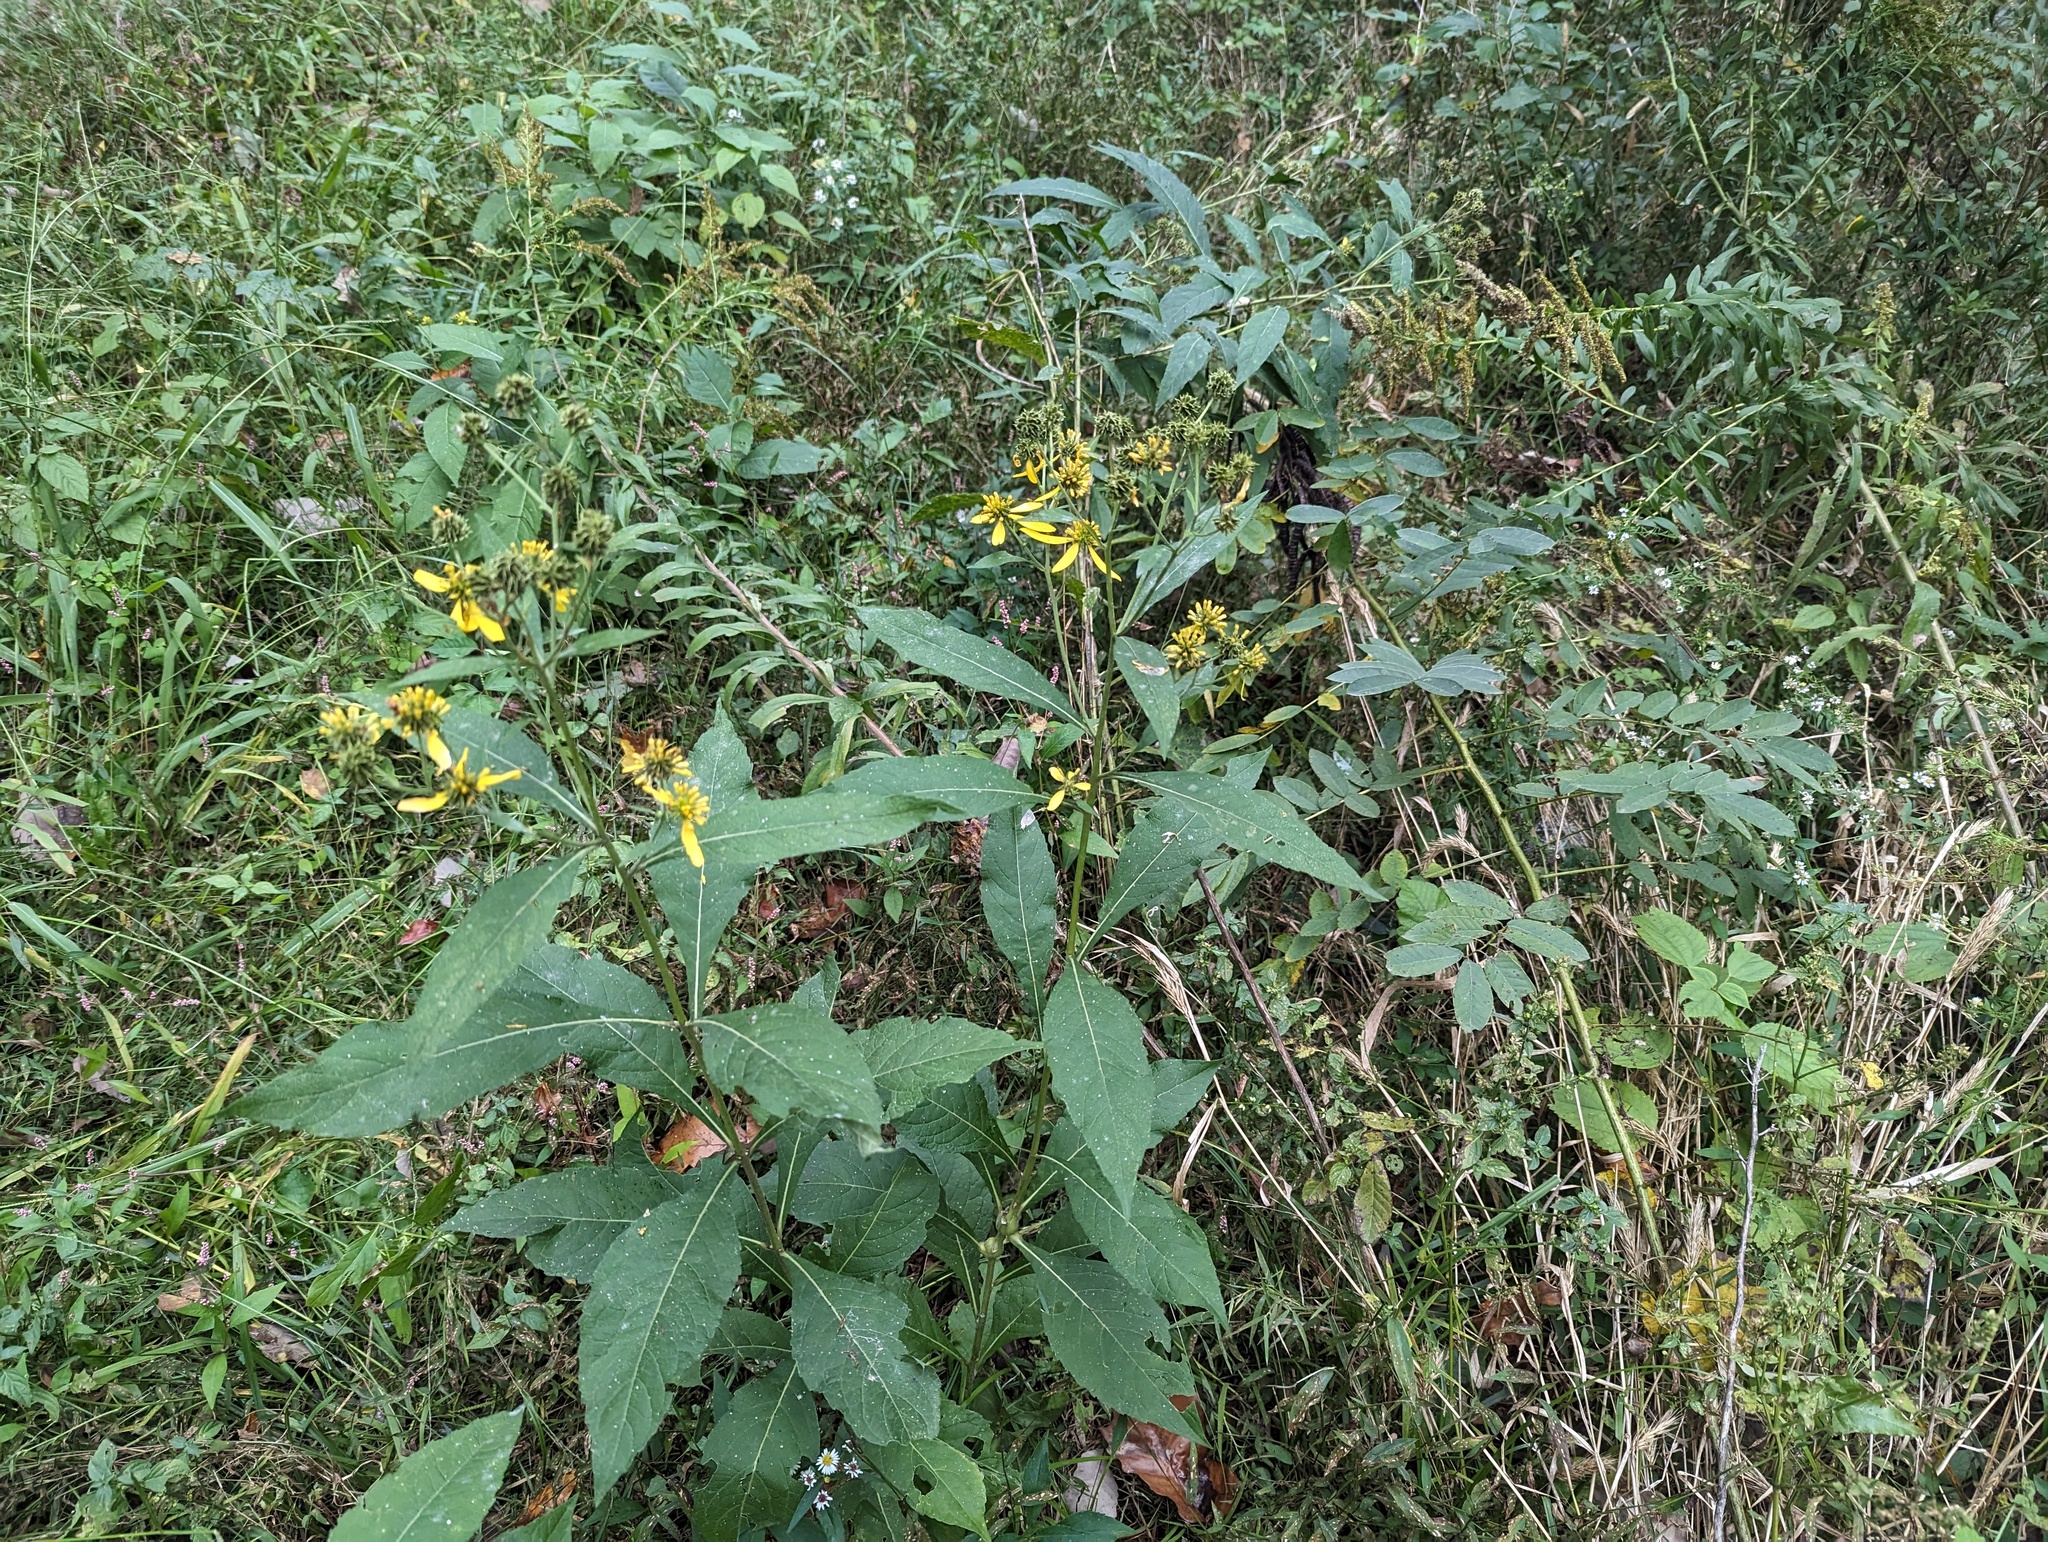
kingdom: Plantae
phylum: Tracheophyta
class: Magnoliopsida
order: Asterales
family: Asteraceae
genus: Verbesina
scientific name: Verbesina alternifolia
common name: Wingstem
